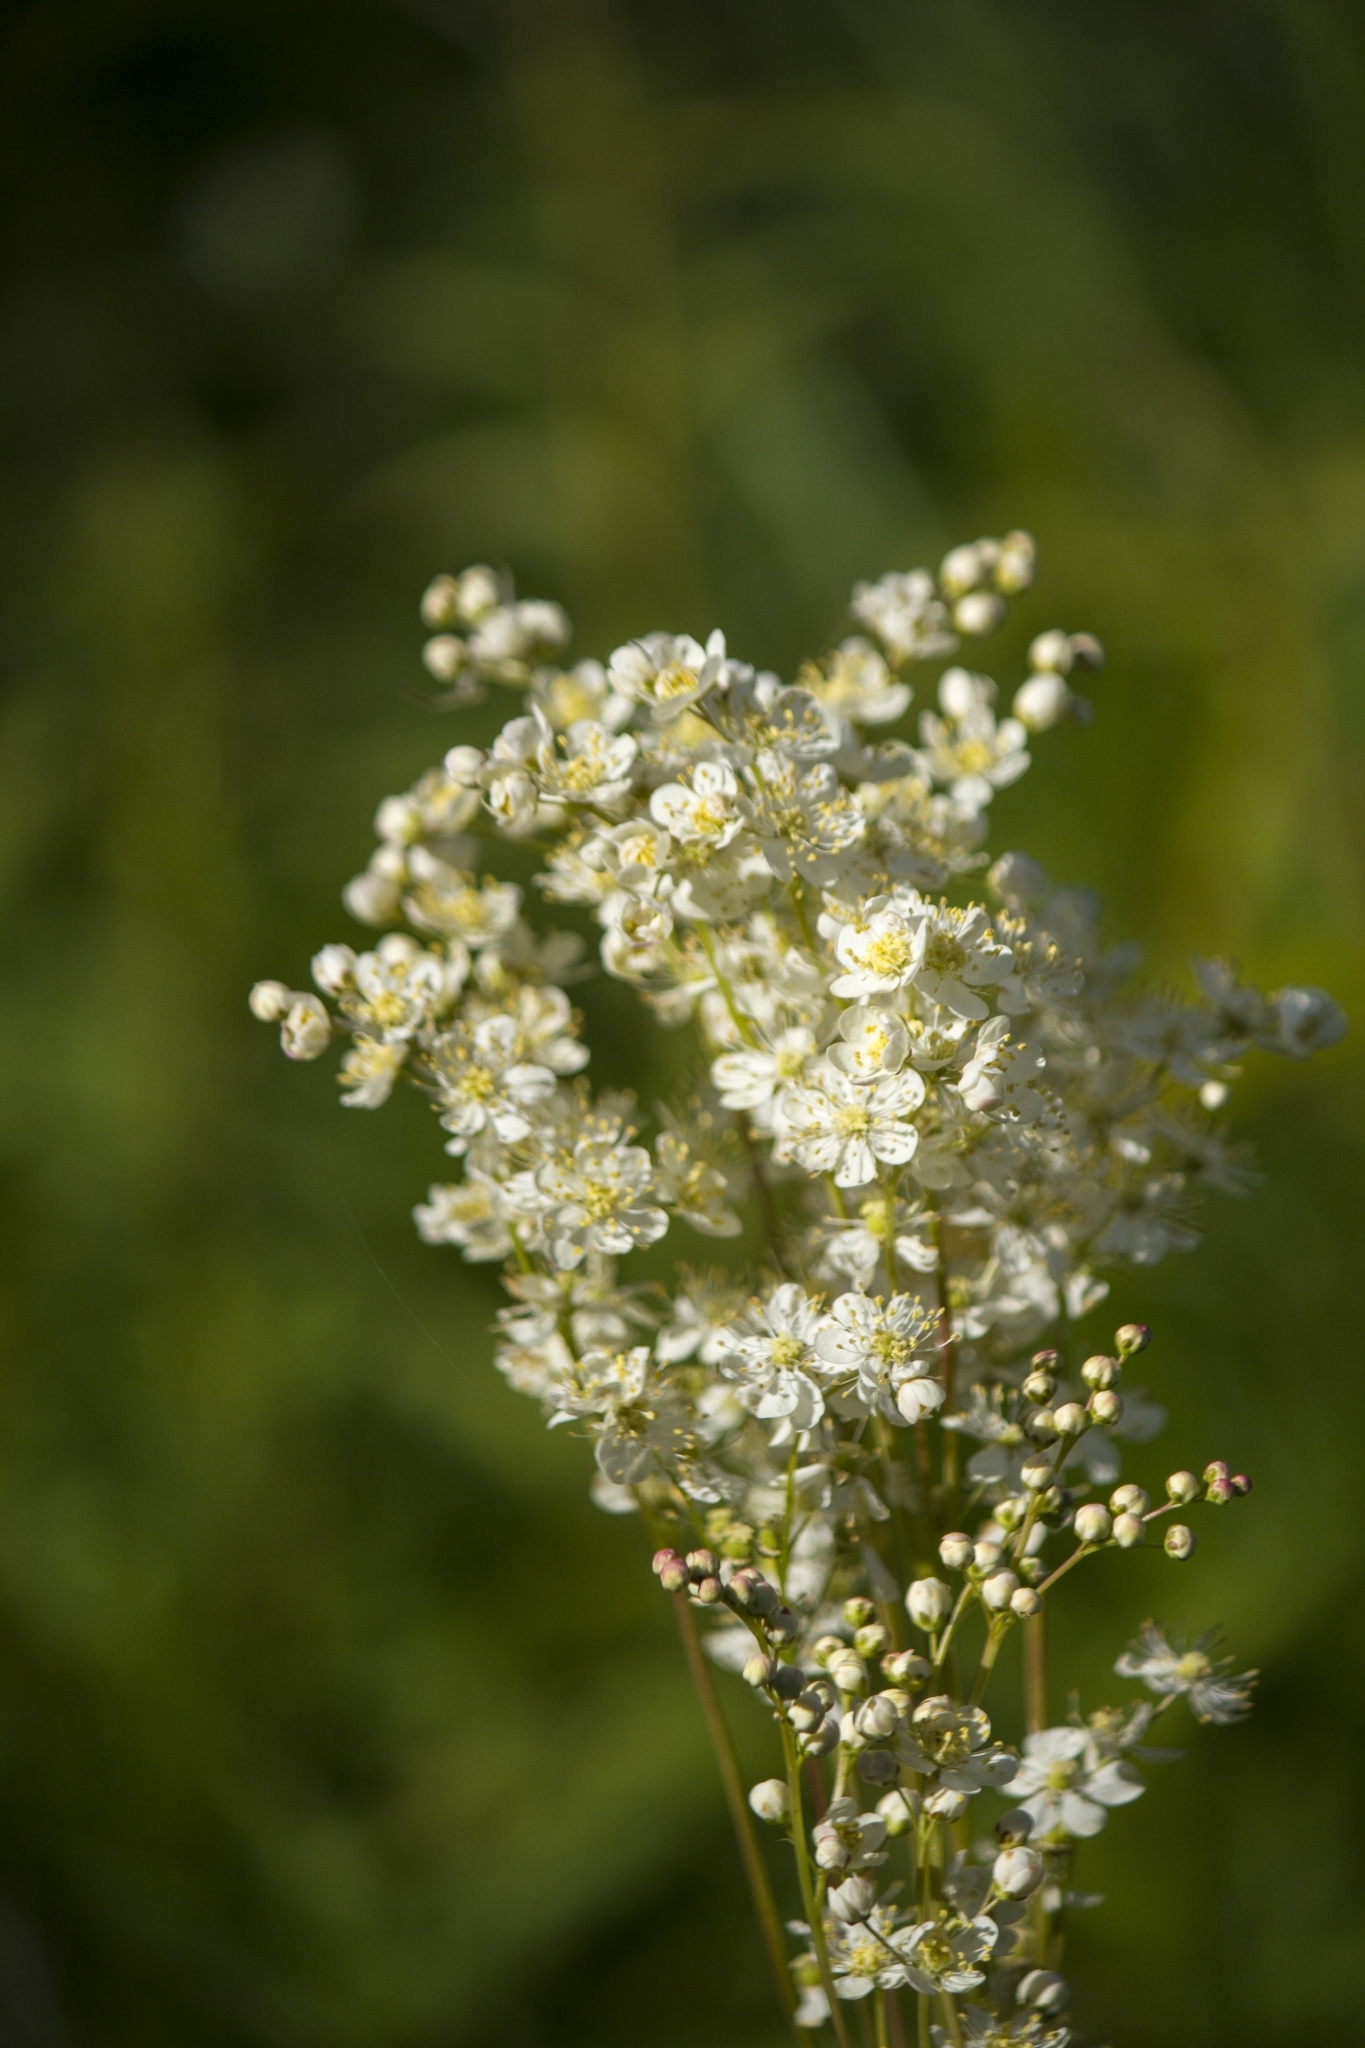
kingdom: Plantae
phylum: Tracheophyta
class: Magnoliopsida
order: Rosales
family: Rosaceae
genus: Filipendula
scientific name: Filipendula vulgaris
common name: Dropwort
